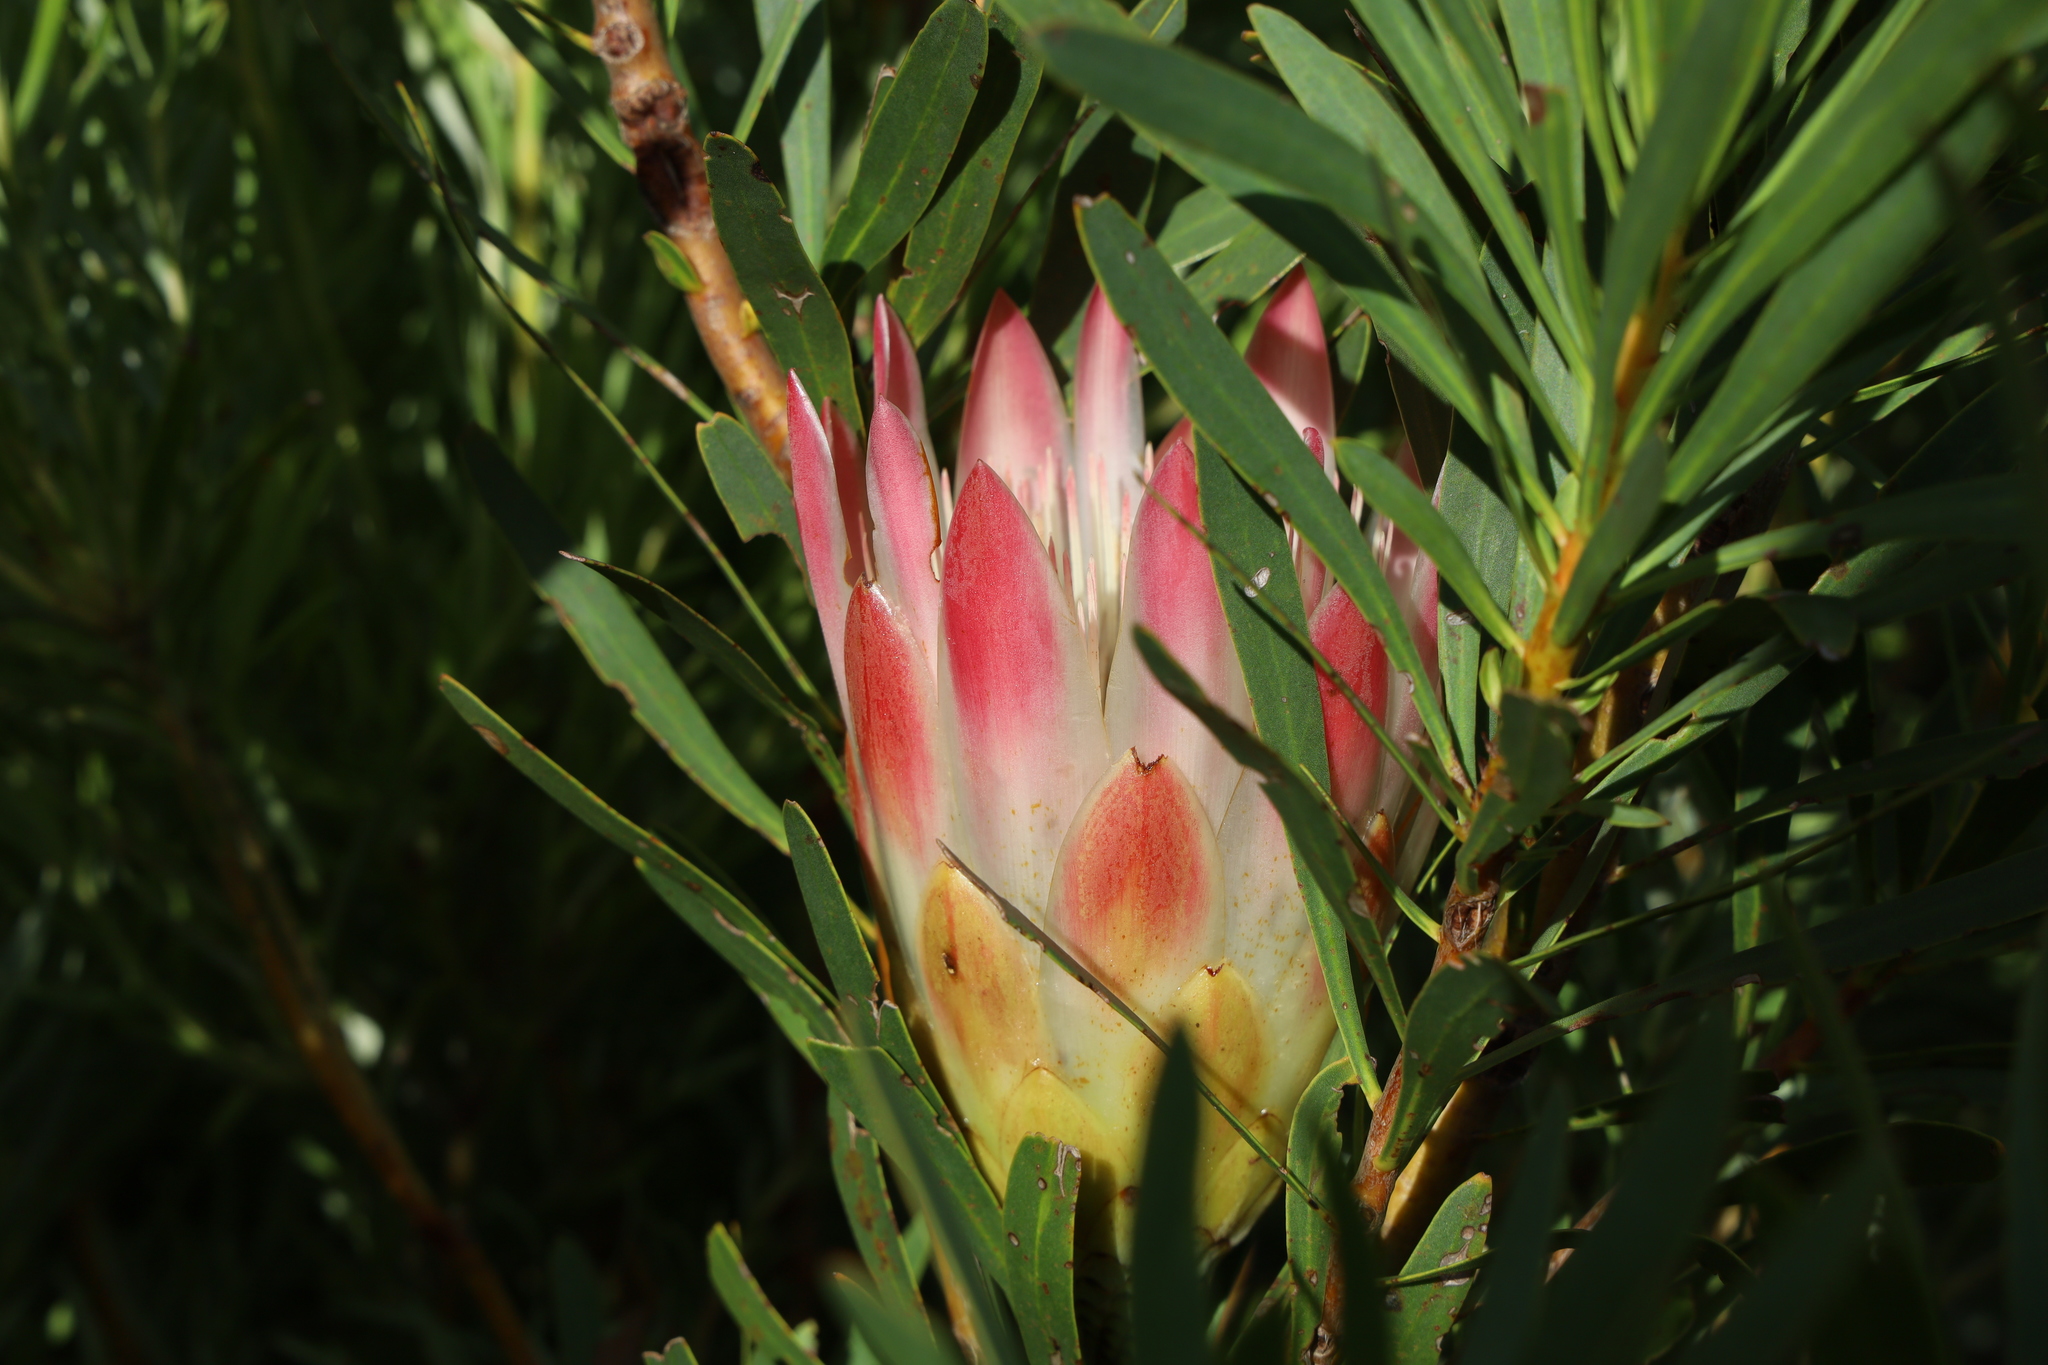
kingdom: Plantae
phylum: Tracheophyta
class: Magnoliopsida
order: Proteales
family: Proteaceae
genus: Protea
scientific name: Protea repens
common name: Sugarbush
